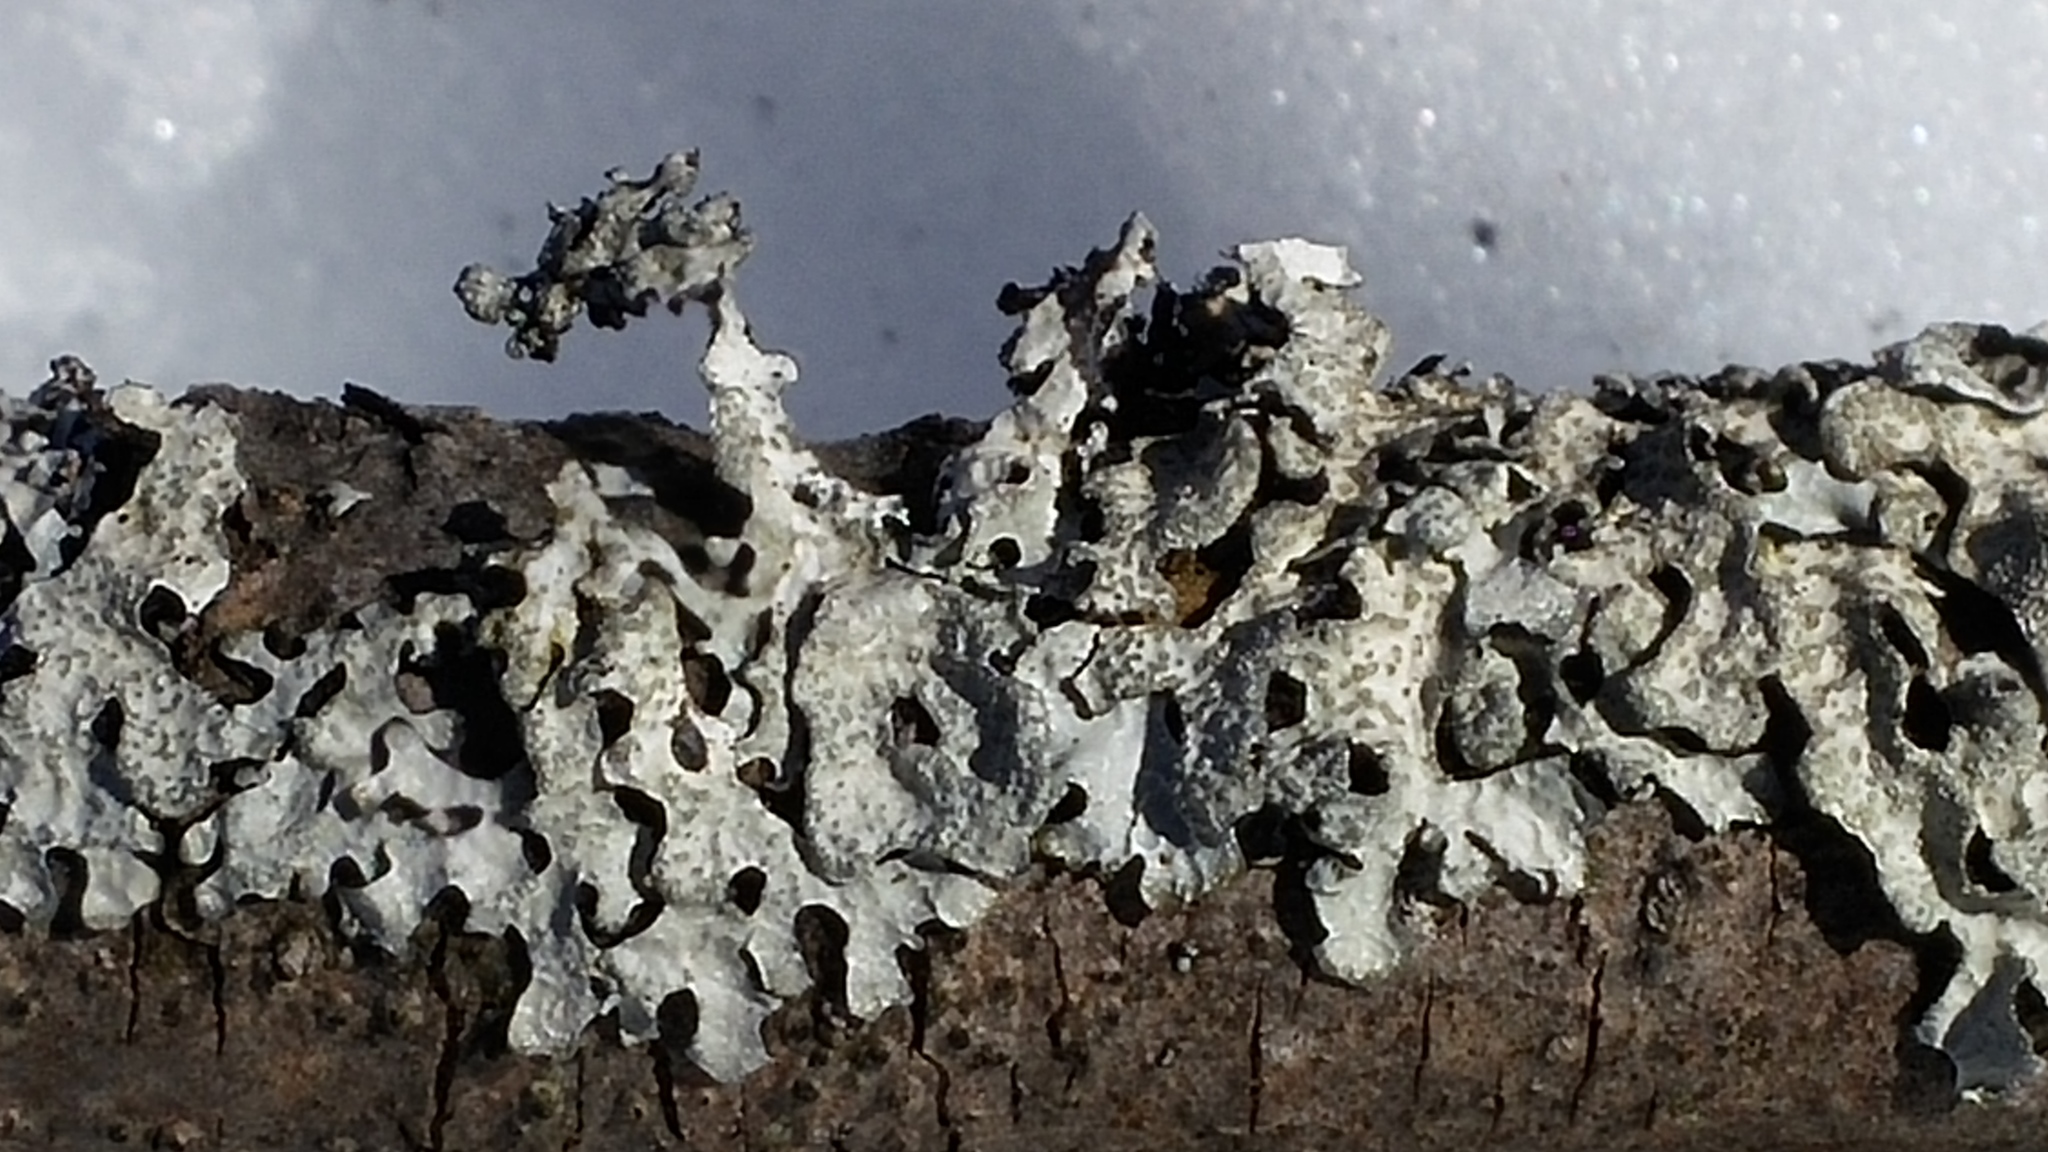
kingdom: Fungi
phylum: Ascomycota
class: Lecanoromycetes
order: Lecanorales
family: Parmeliaceae
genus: Parmelia
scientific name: Parmelia sulcata
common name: Netted shield lichen
